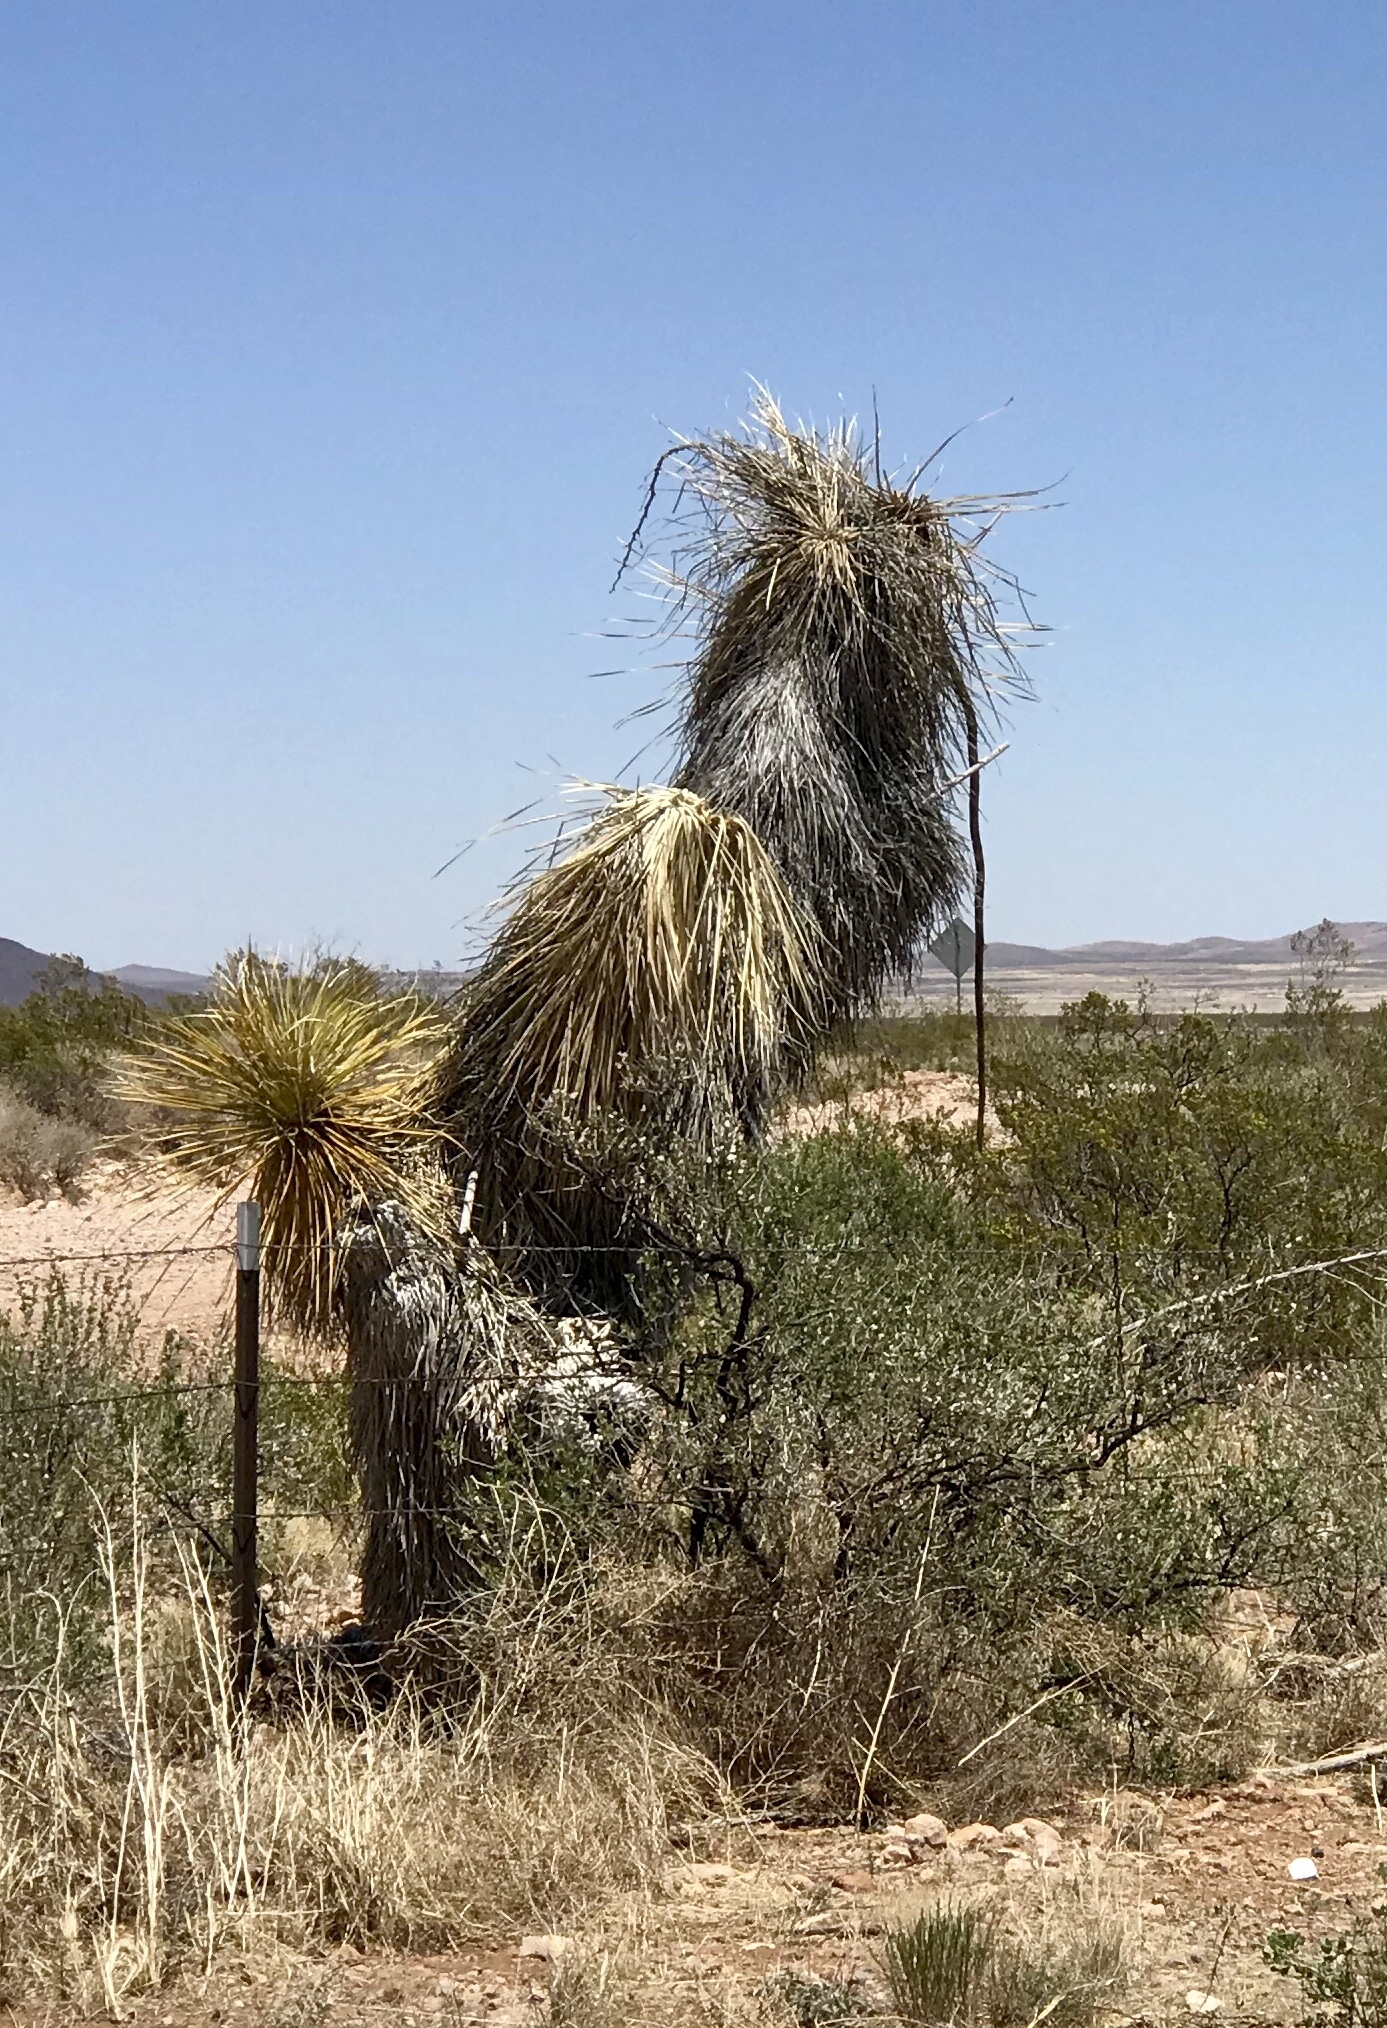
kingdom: Plantae
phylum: Tracheophyta
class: Liliopsida
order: Asparagales
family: Asparagaceae
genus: Yucca
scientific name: Yucca elata
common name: Palmella
